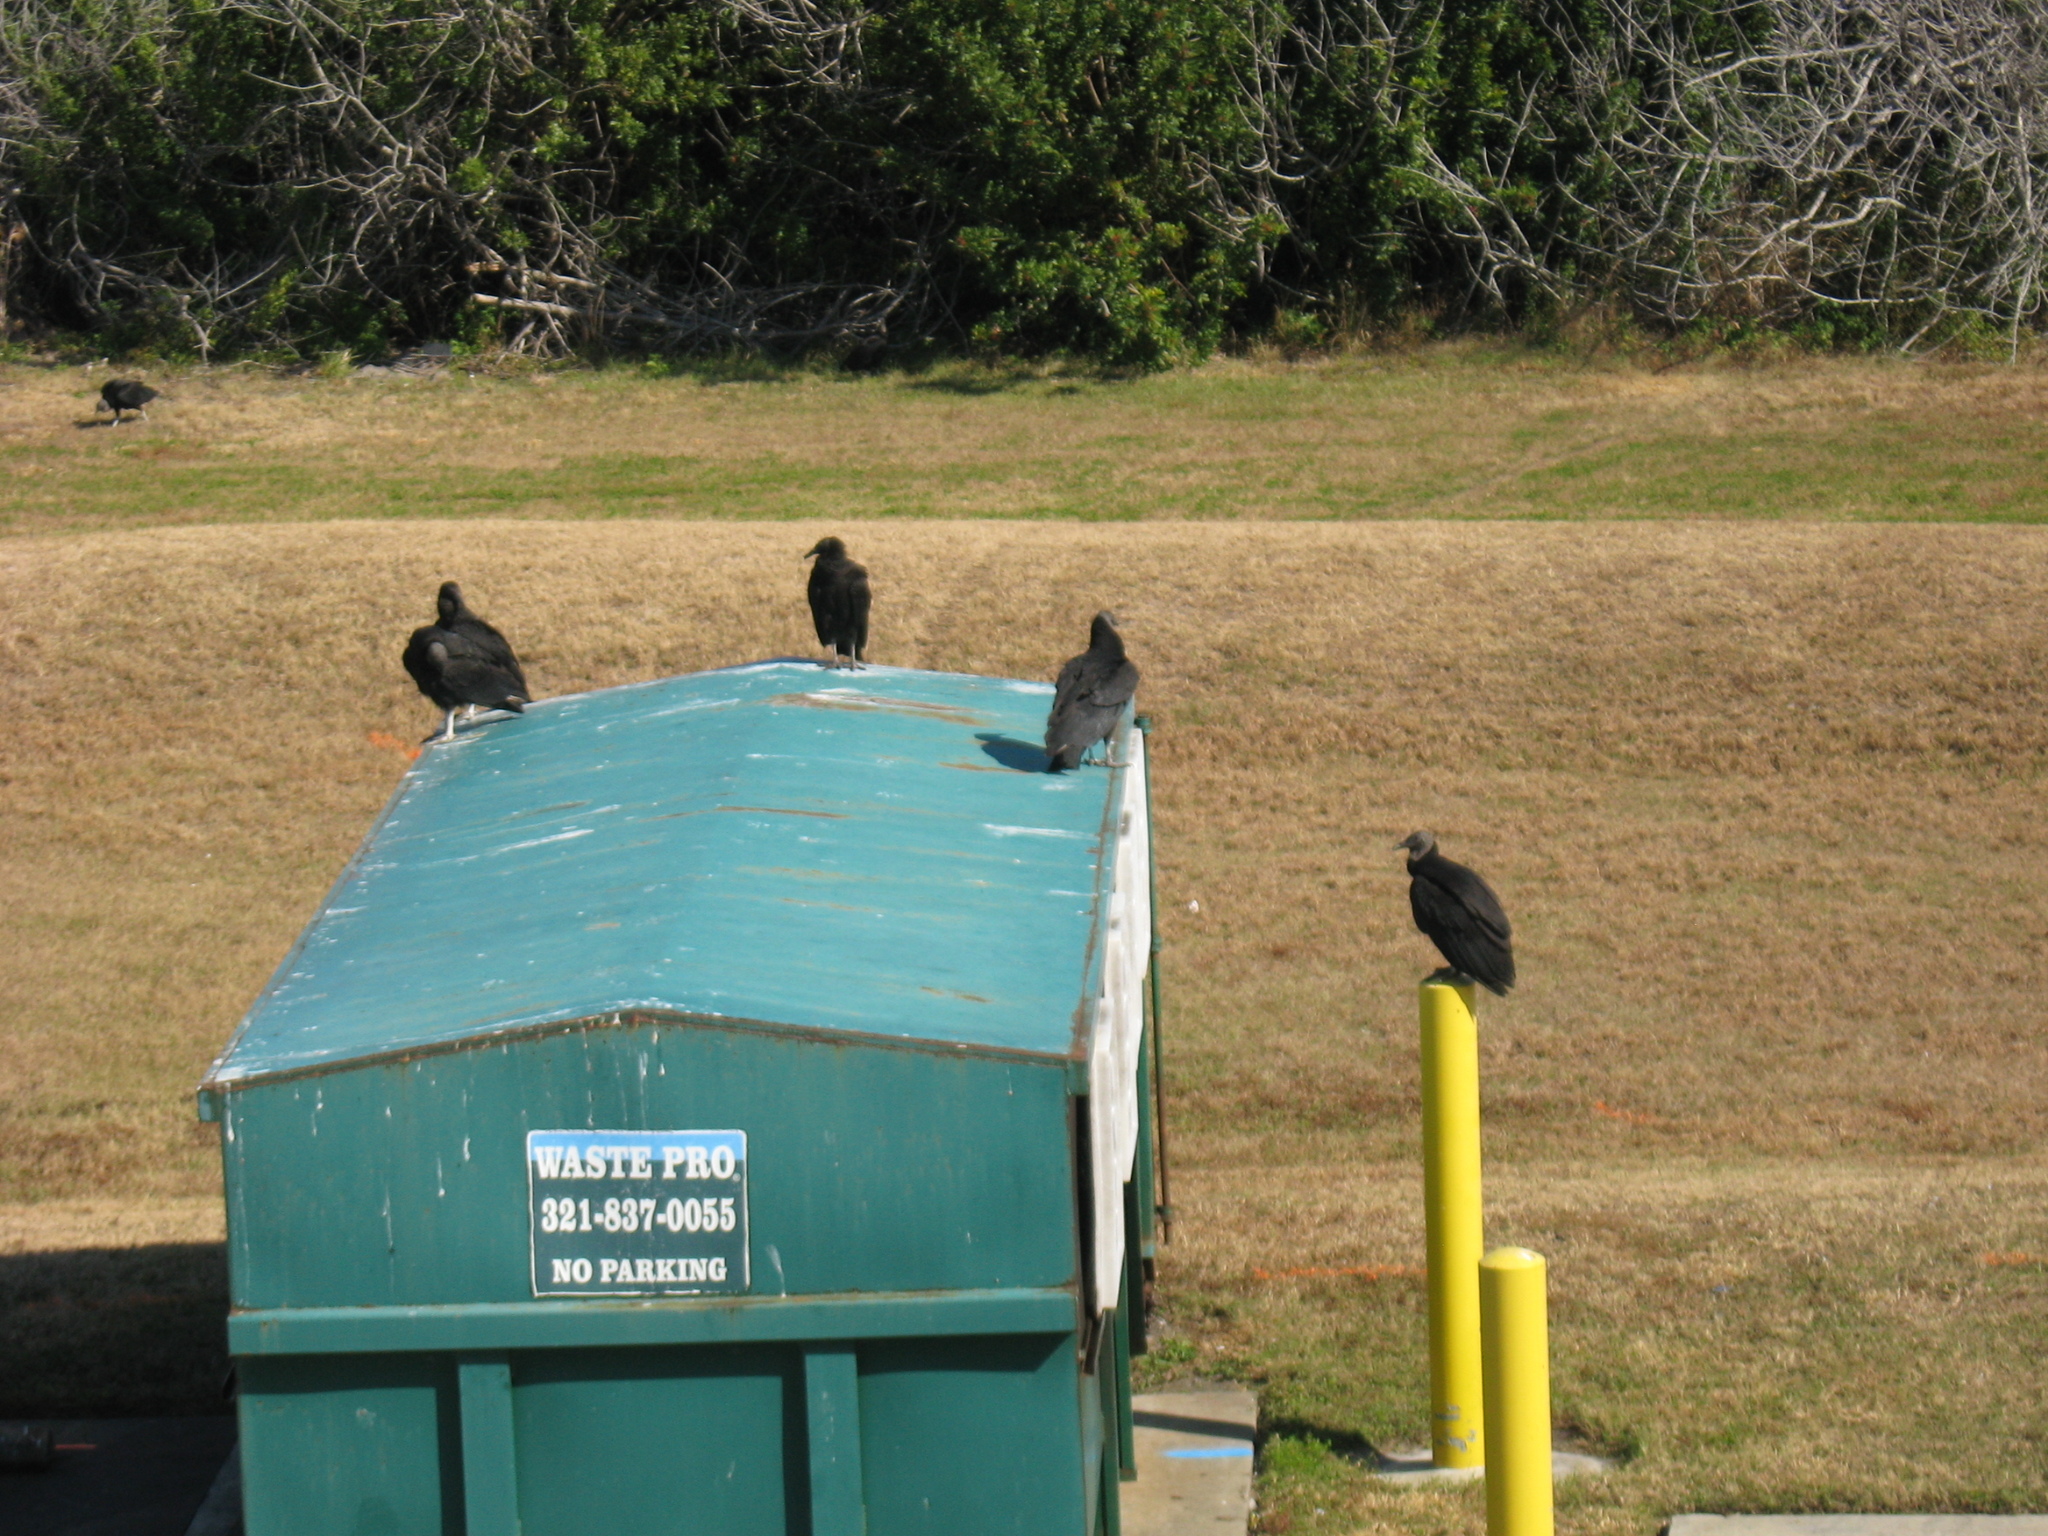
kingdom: Animalia
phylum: Chordata
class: Aves
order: Accipitriformes
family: Cathartidae
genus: Coragyps
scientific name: Coragyps atratus
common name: Black vulture
